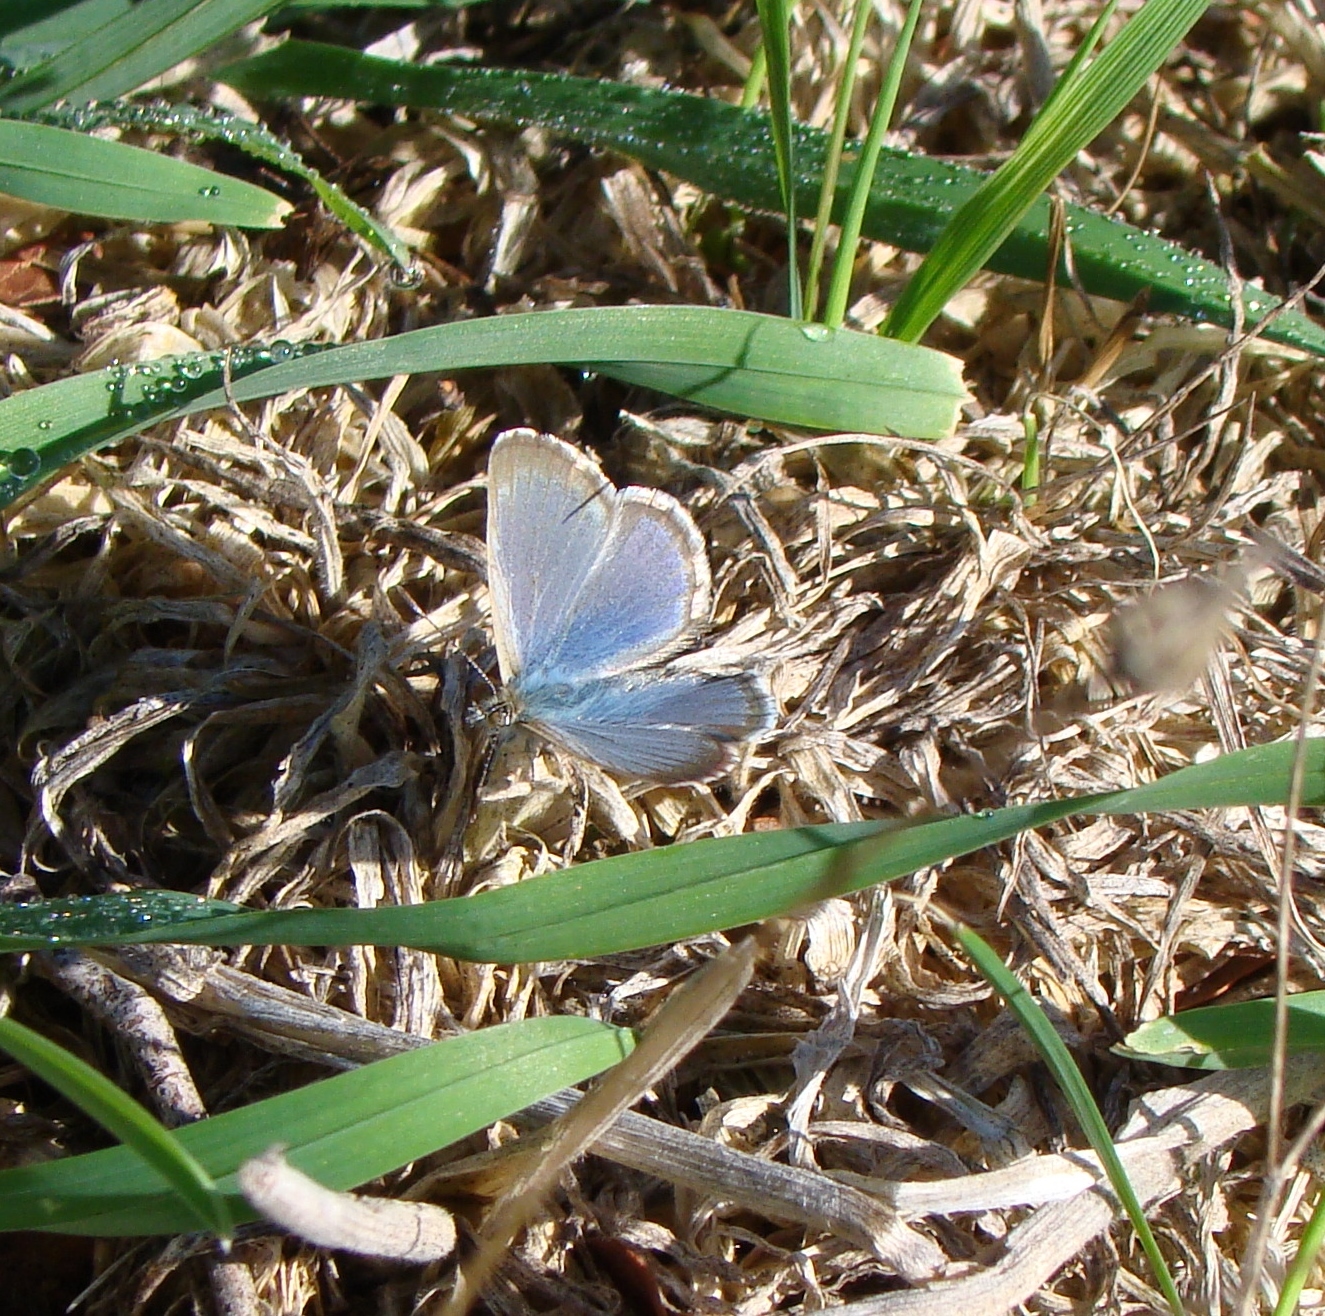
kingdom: Animalia
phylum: Arthropoda
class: Insecta
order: Lepidoptera
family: Lycaenidae
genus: Zizina
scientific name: Zizina otis
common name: Lesser grass blue
